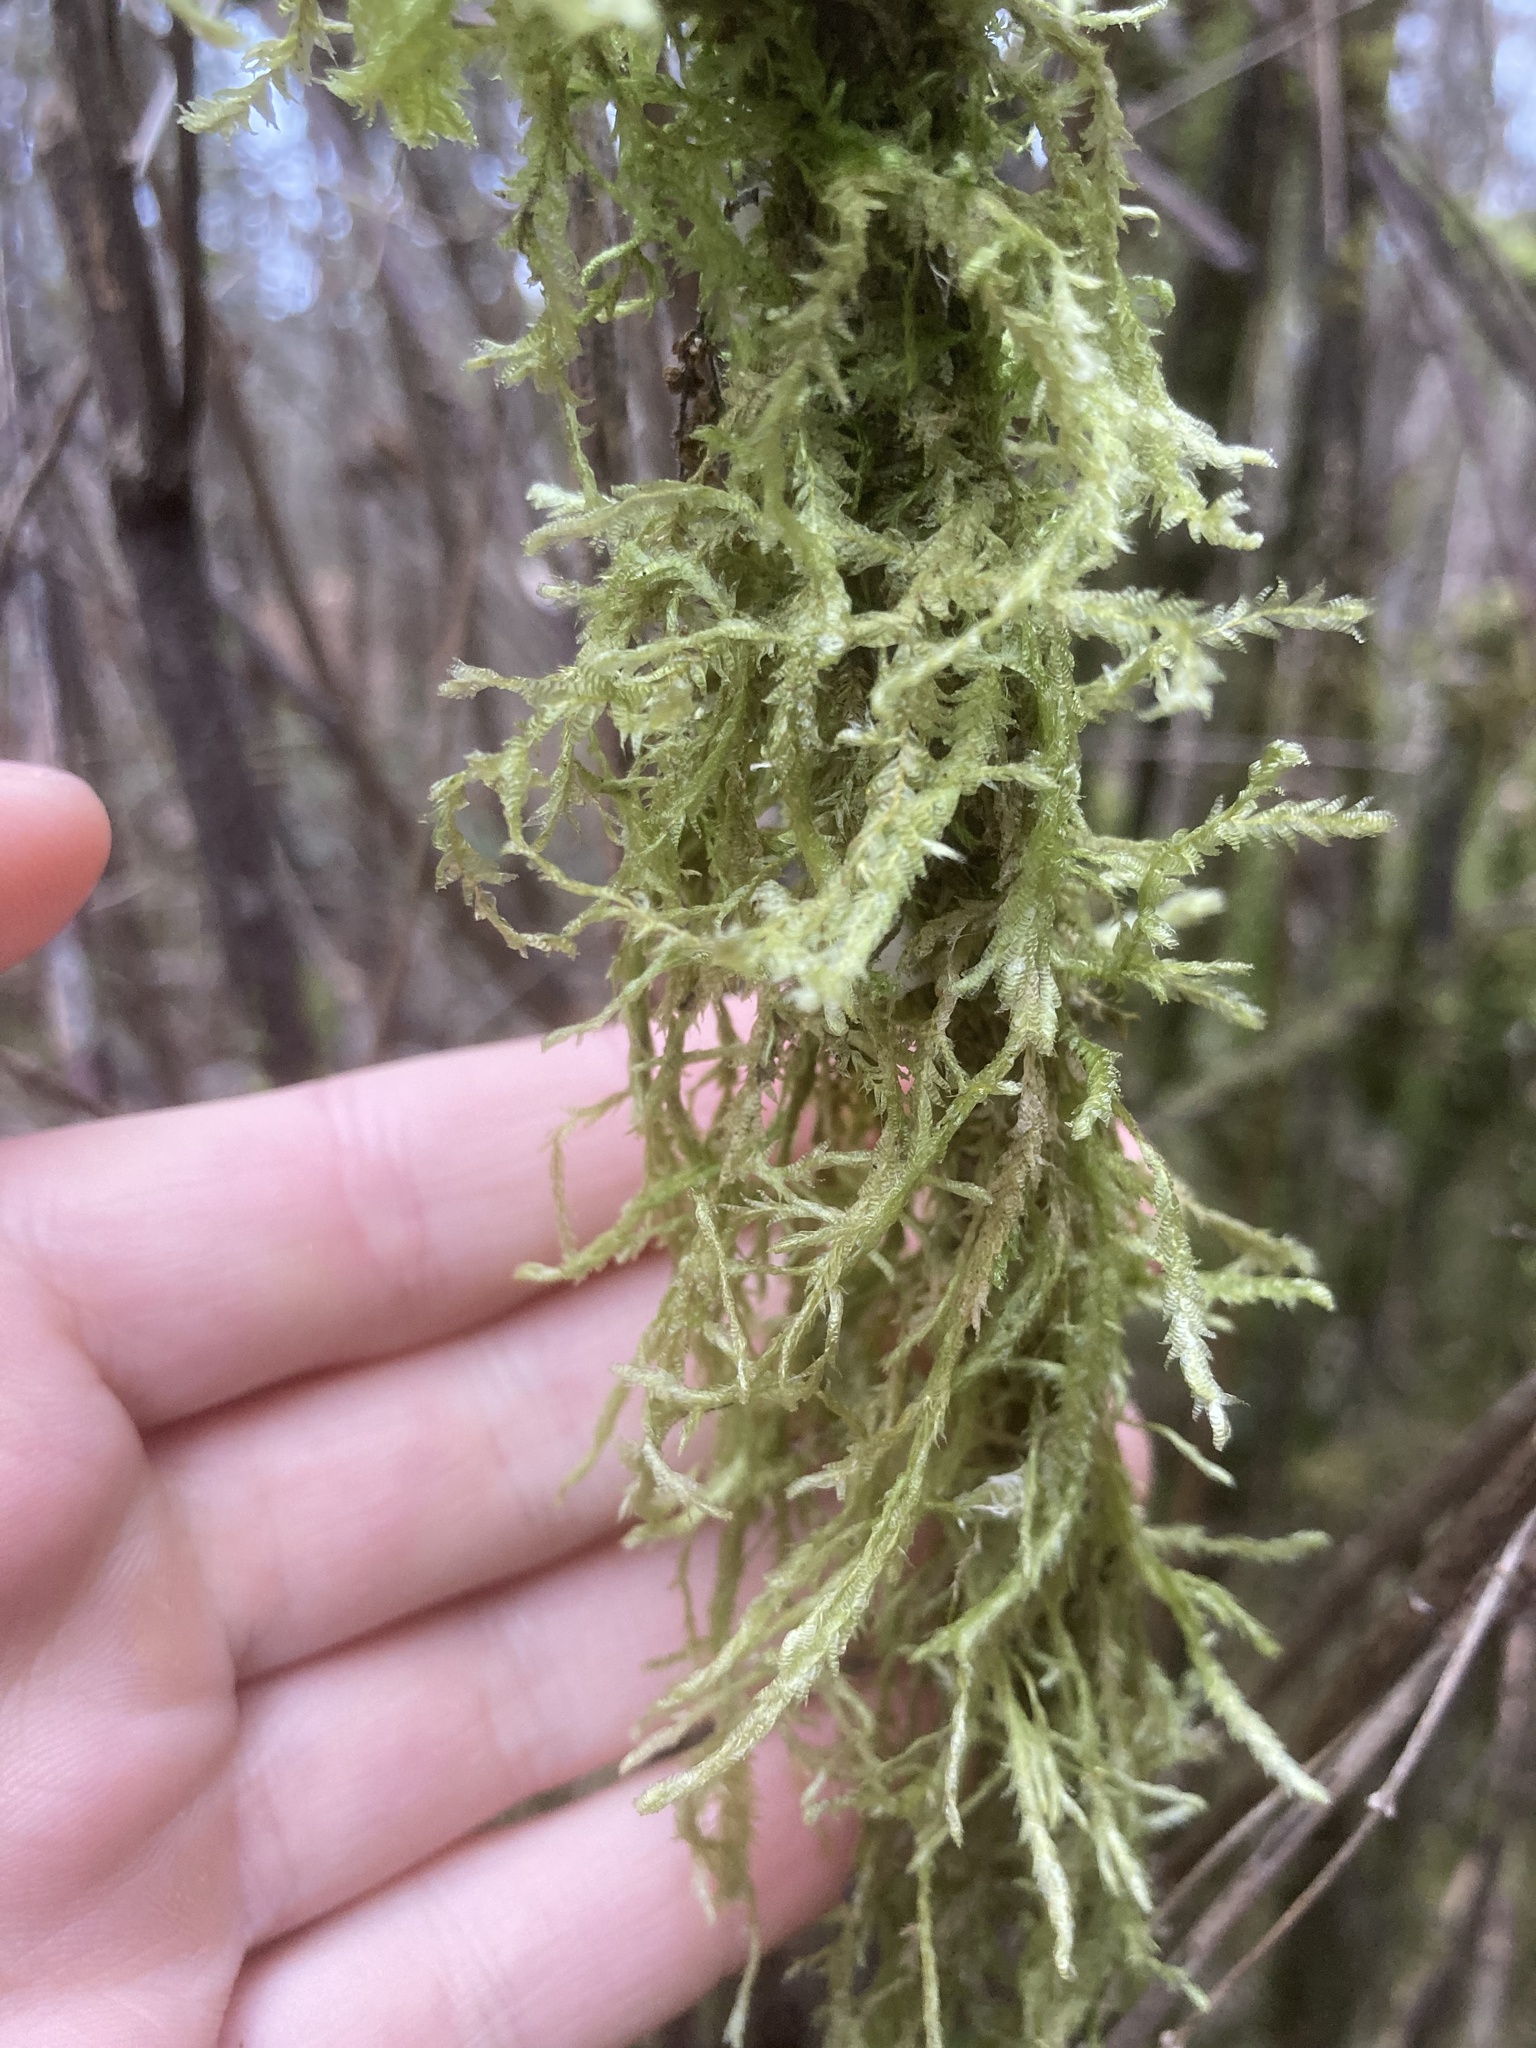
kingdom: Plantae
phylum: Bryophyta
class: Bryopsida
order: Hypnales
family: Neckeraceae
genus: Neckera
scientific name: Neckera douglasii
